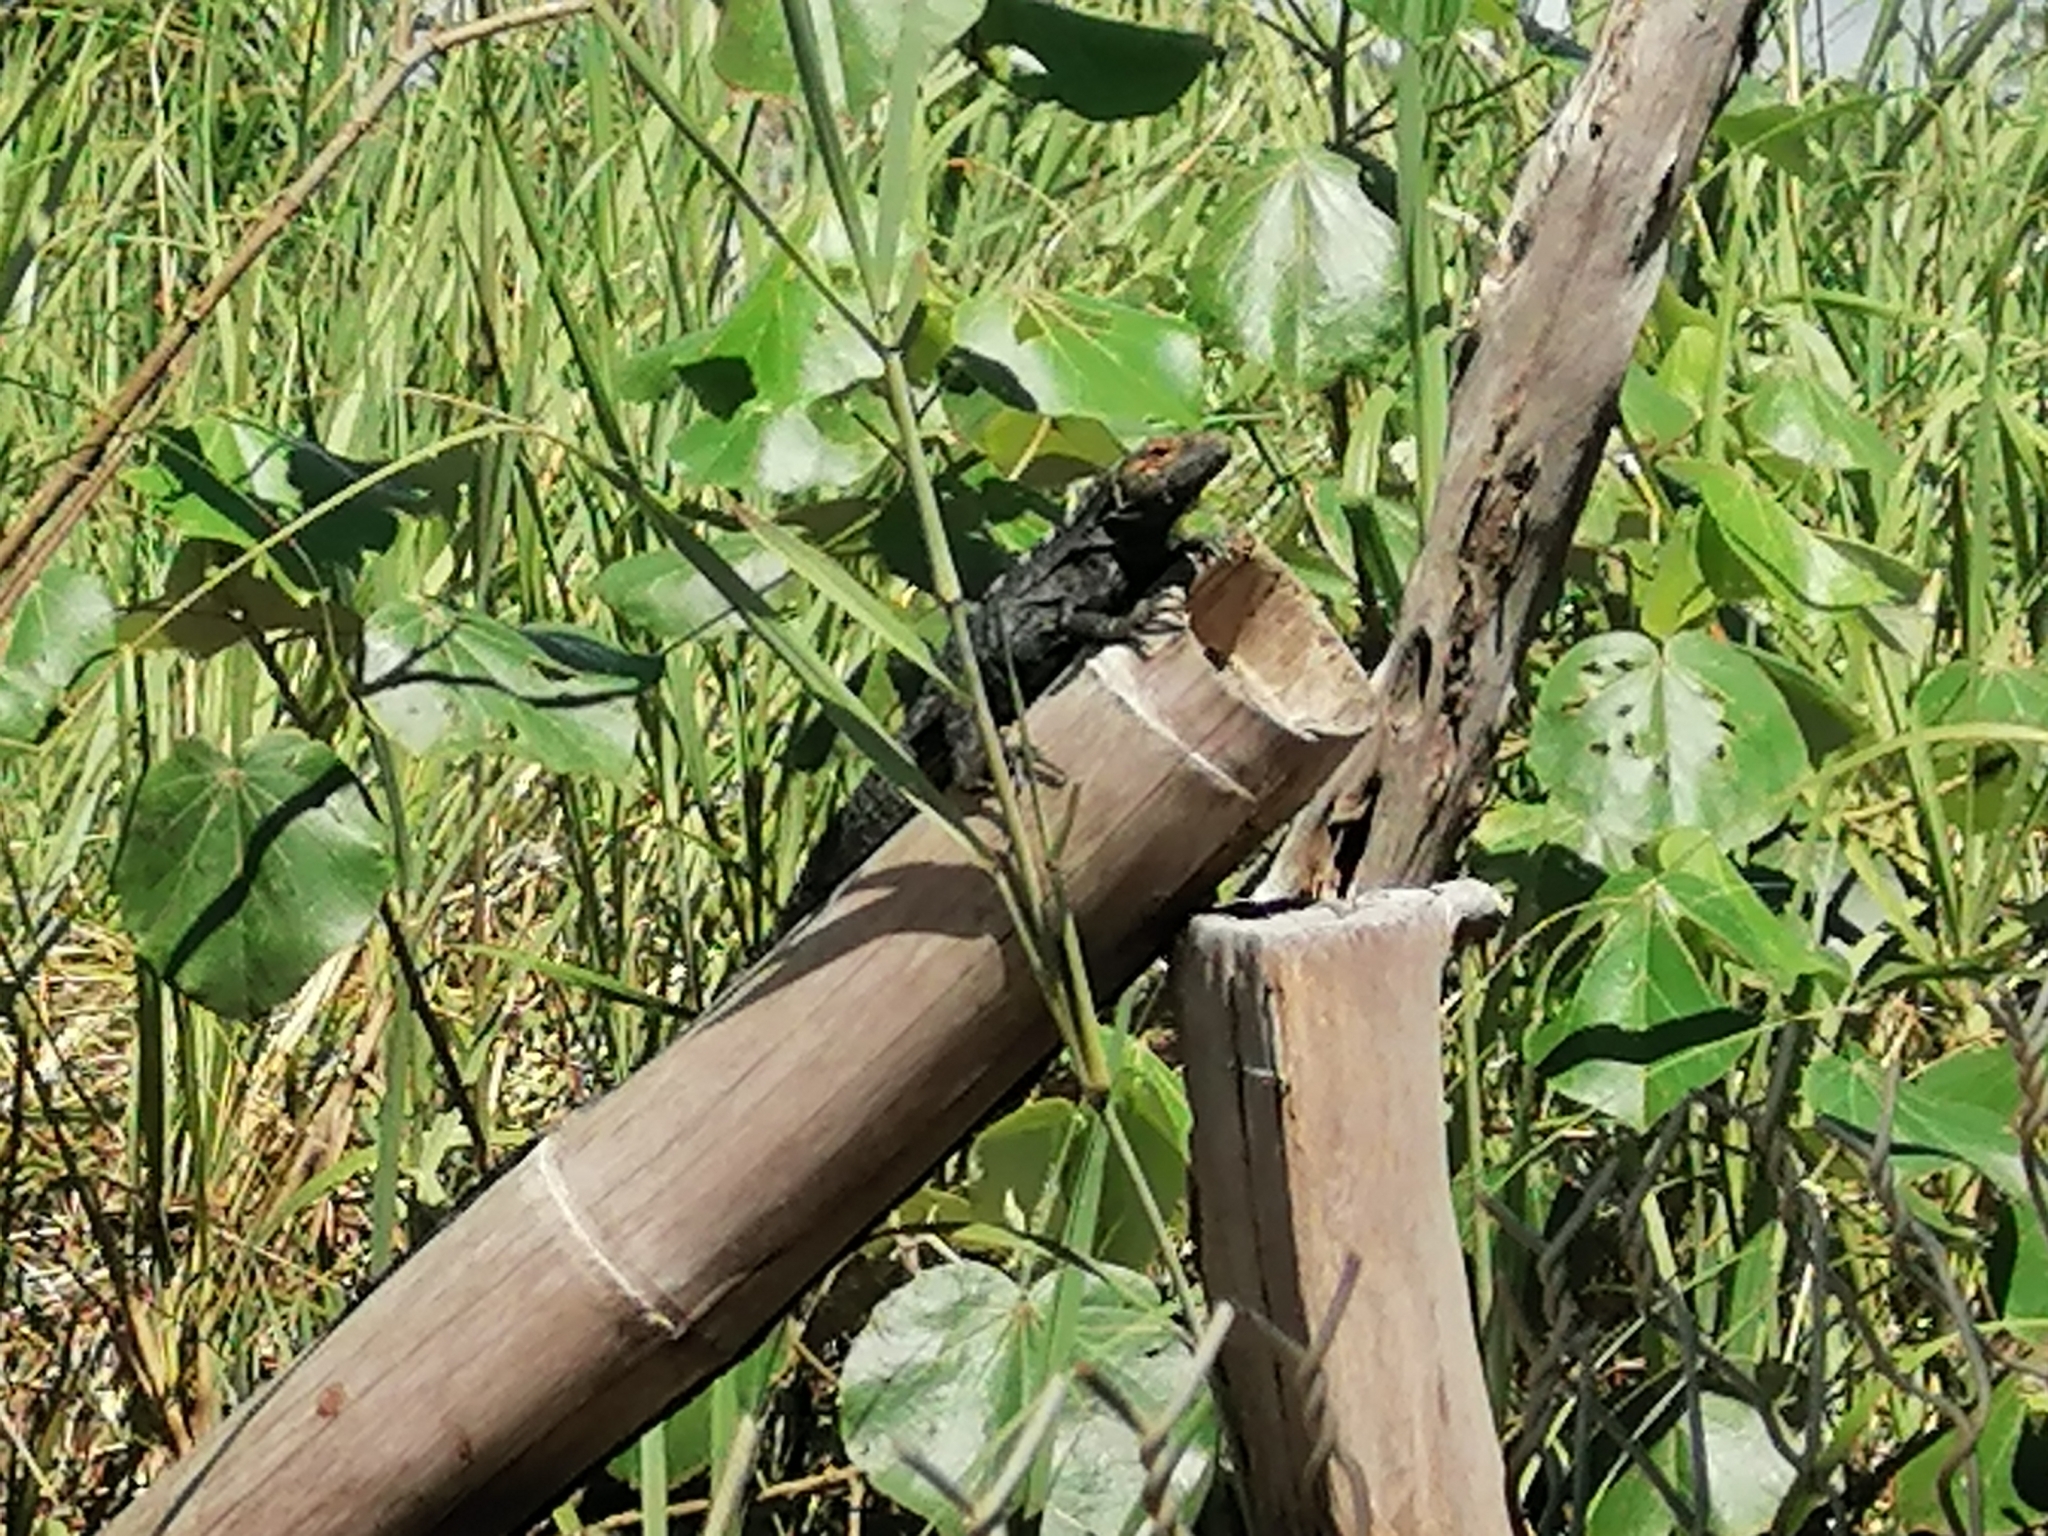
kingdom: Animalia
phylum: Chordata
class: Squamata
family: Iguanidae
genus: Ctenosaura
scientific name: Ctenosaura similis
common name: Black spiny-tailed iguana
